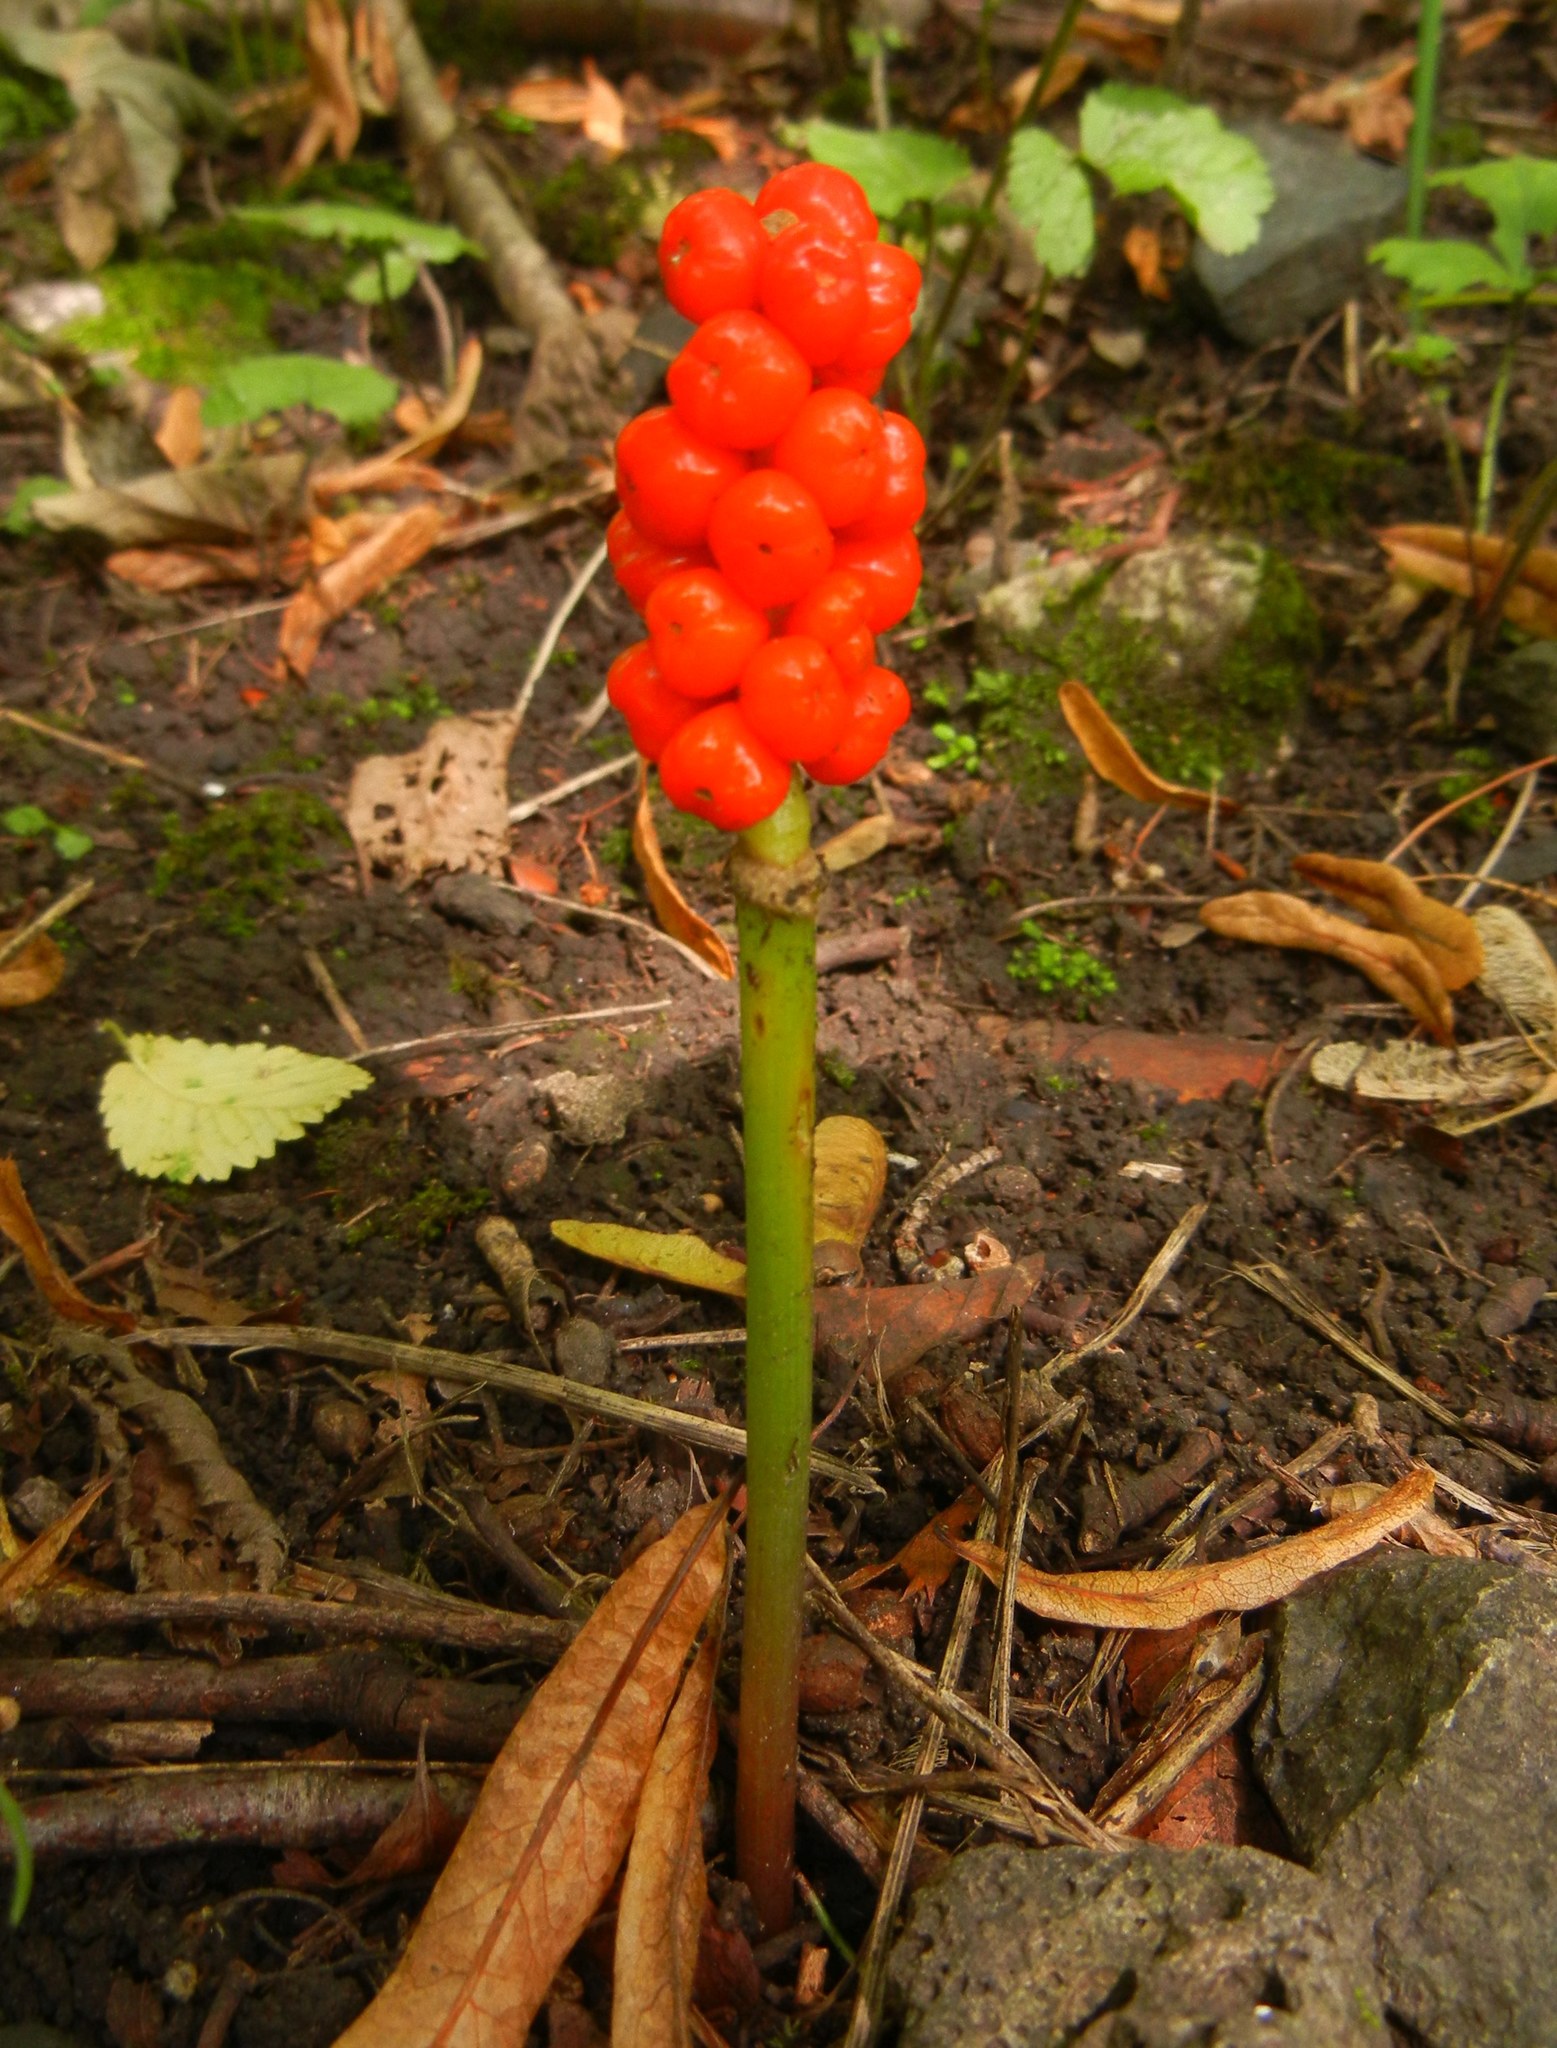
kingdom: Plantae
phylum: Tracheophyta
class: Liliopsida
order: Alismatales
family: Araceae
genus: Arum
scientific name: Arum maculatum
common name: Lords-and-ladies
